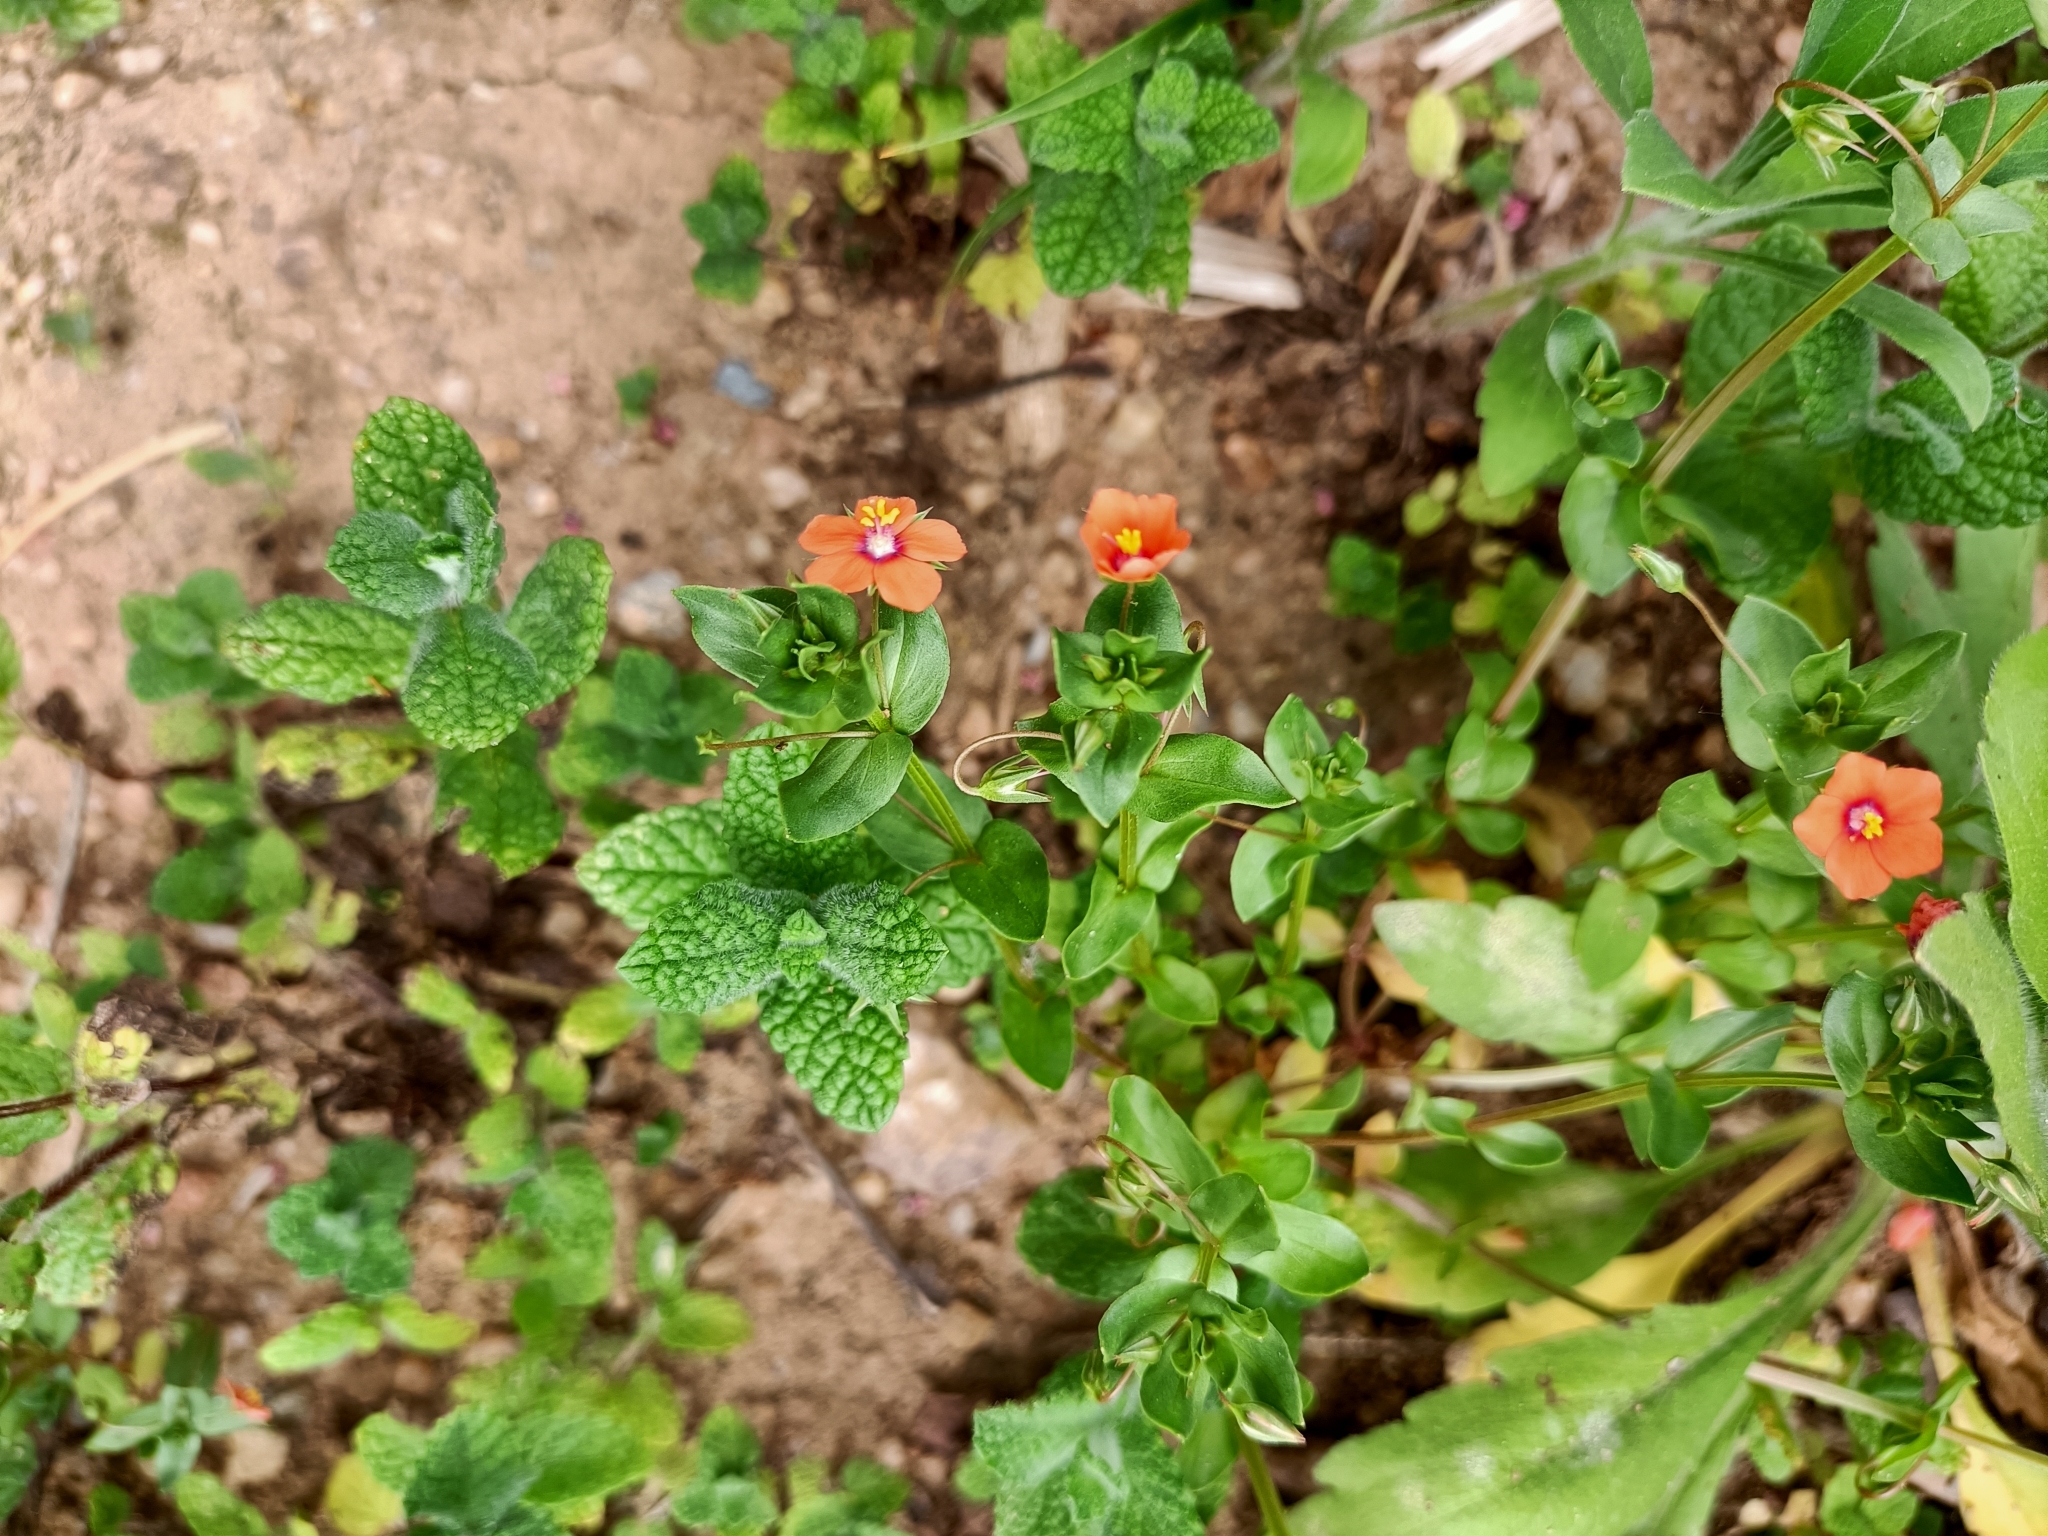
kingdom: Plantae
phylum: Tracheophyta
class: Magnoliopsida
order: Ericales
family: Primulaceae
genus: Lysimachia
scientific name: Lysimachia arvensis
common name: Scarlet pimpernel
